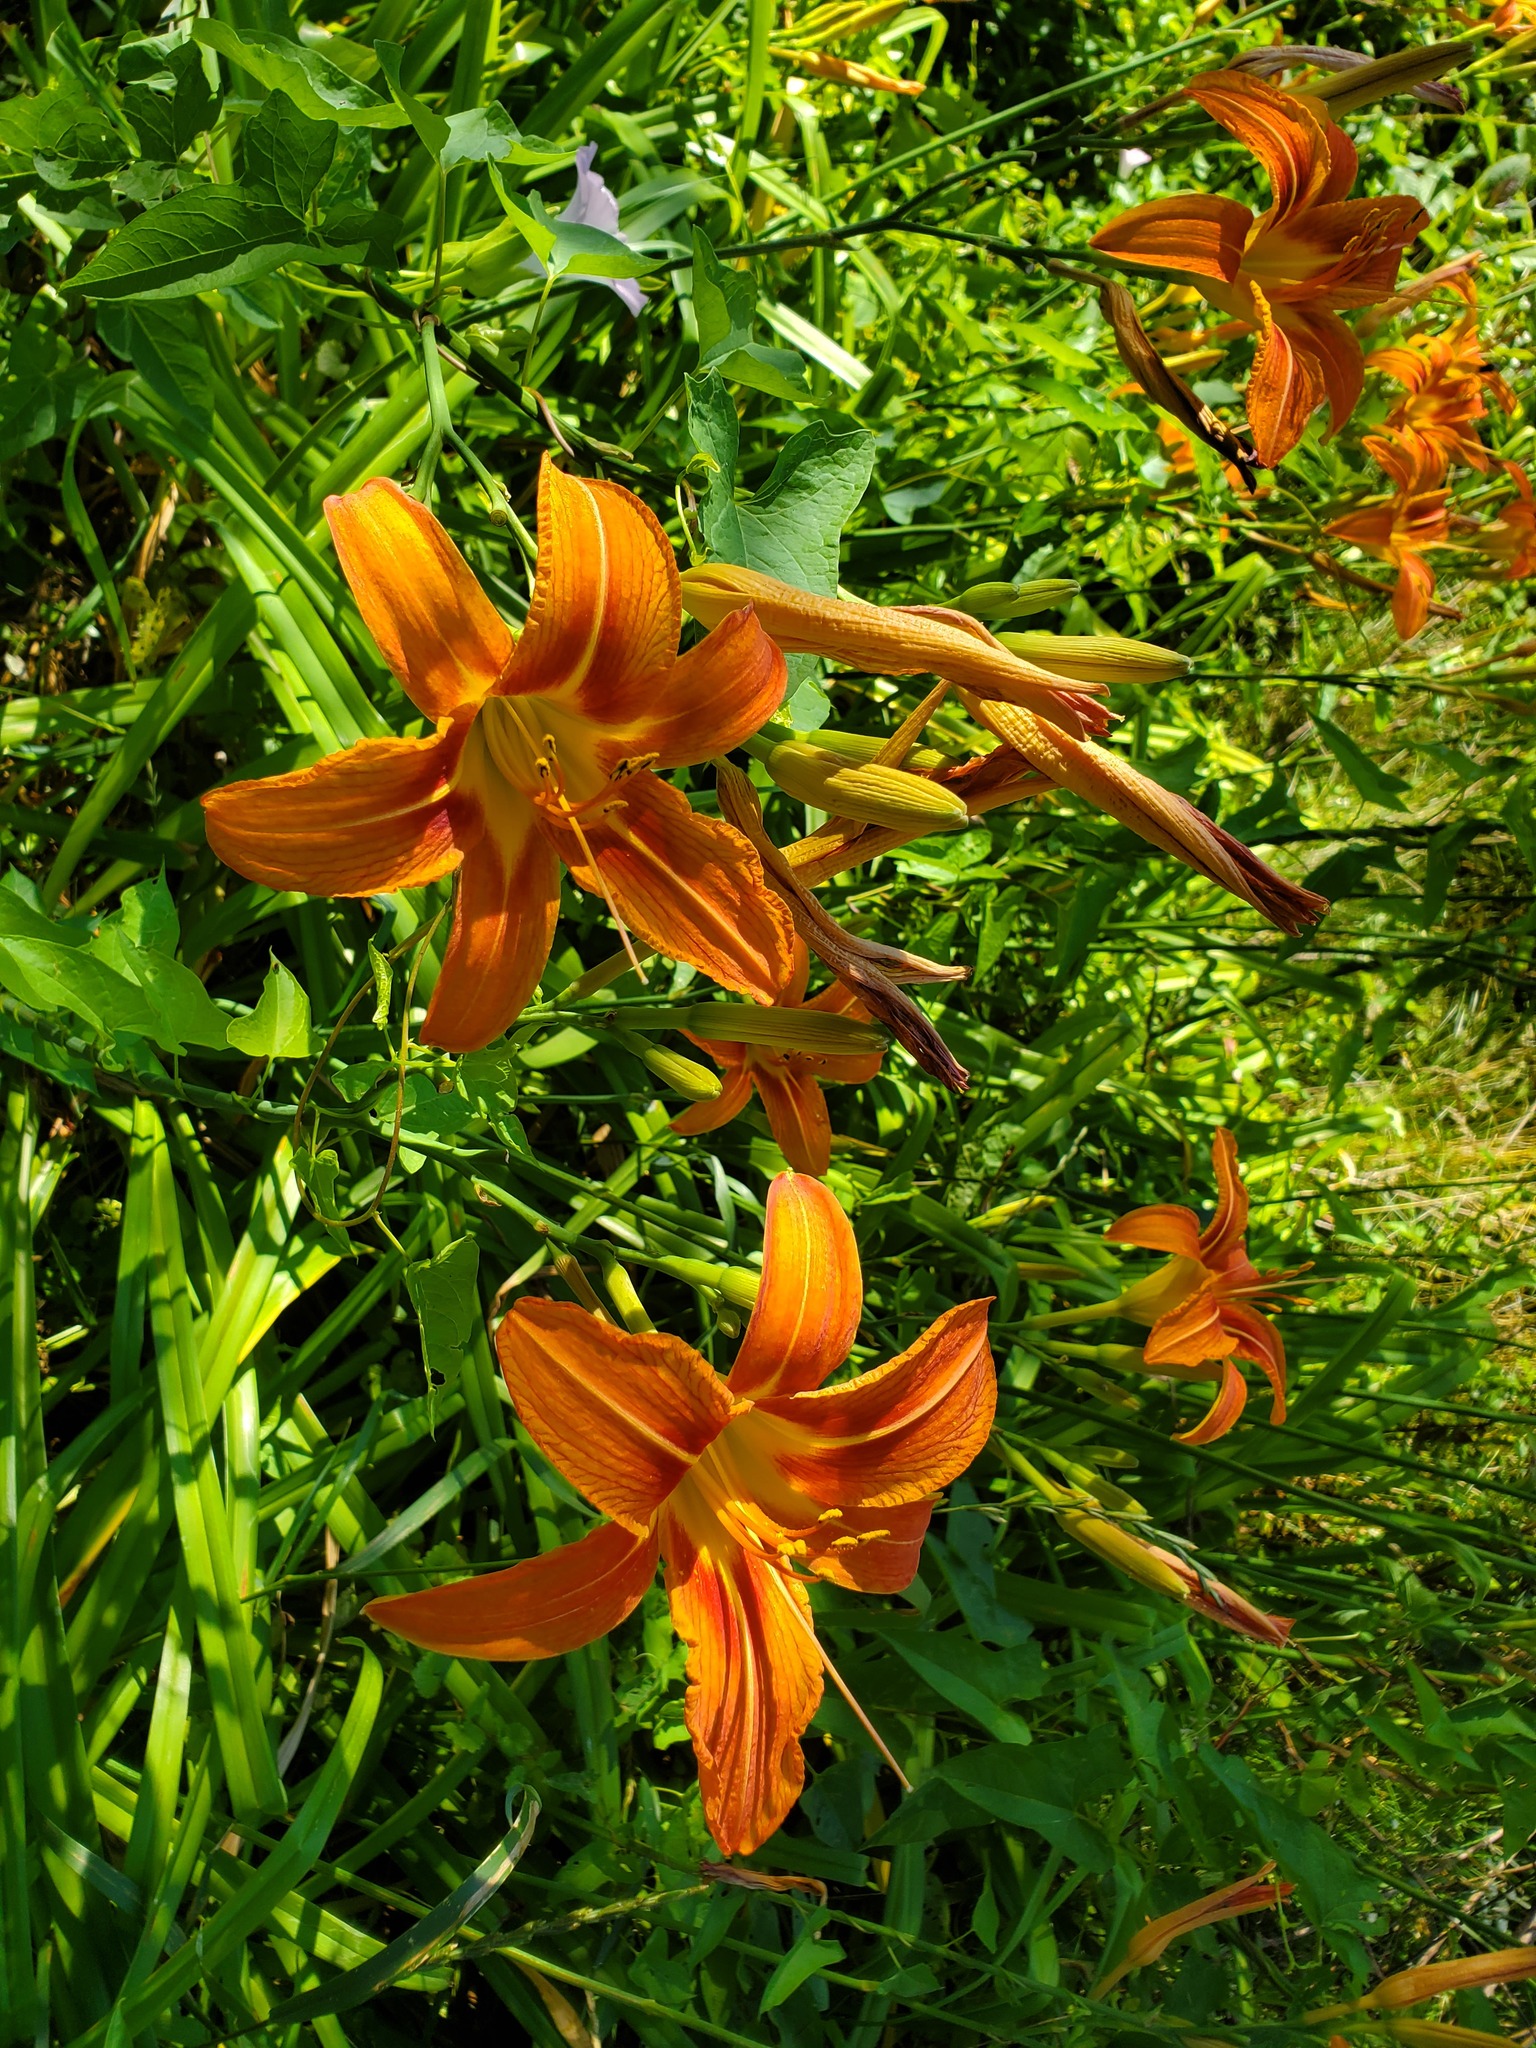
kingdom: Plantae
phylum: Tracheophyta
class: Liliopsida
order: Asparagales
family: Asphodelaceae
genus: Hemerocallis
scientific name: Hemerocallis fulva
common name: Orange day-lily
